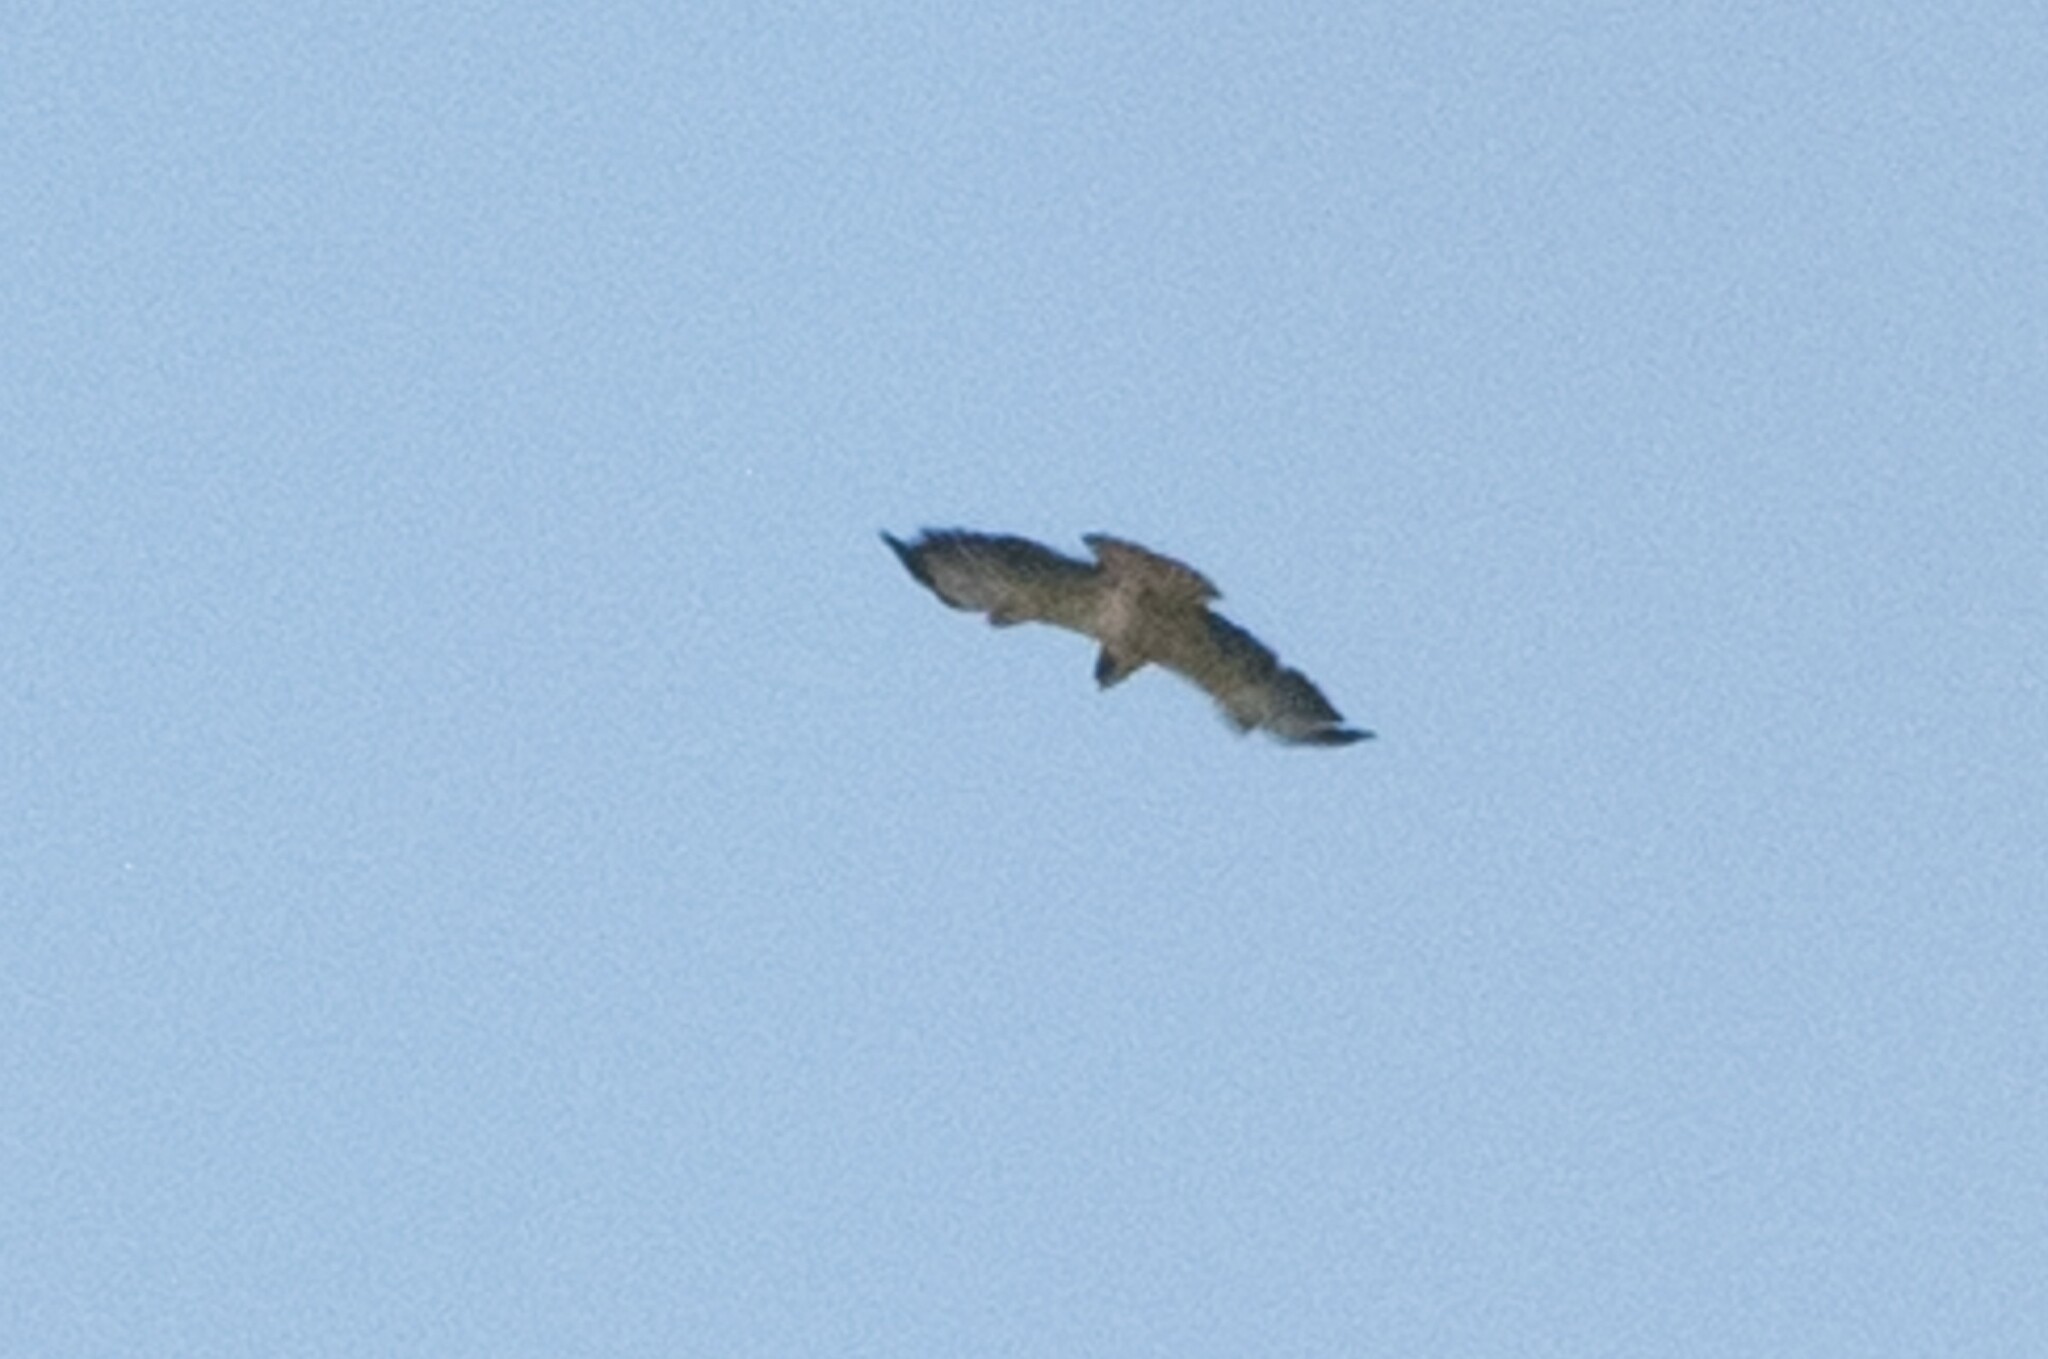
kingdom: Animalia
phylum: Chordata
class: Aves
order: Accipitriformes
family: Accipitridae
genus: Buteo
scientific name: Buteo brachyurus
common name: Short-tailed hawk
